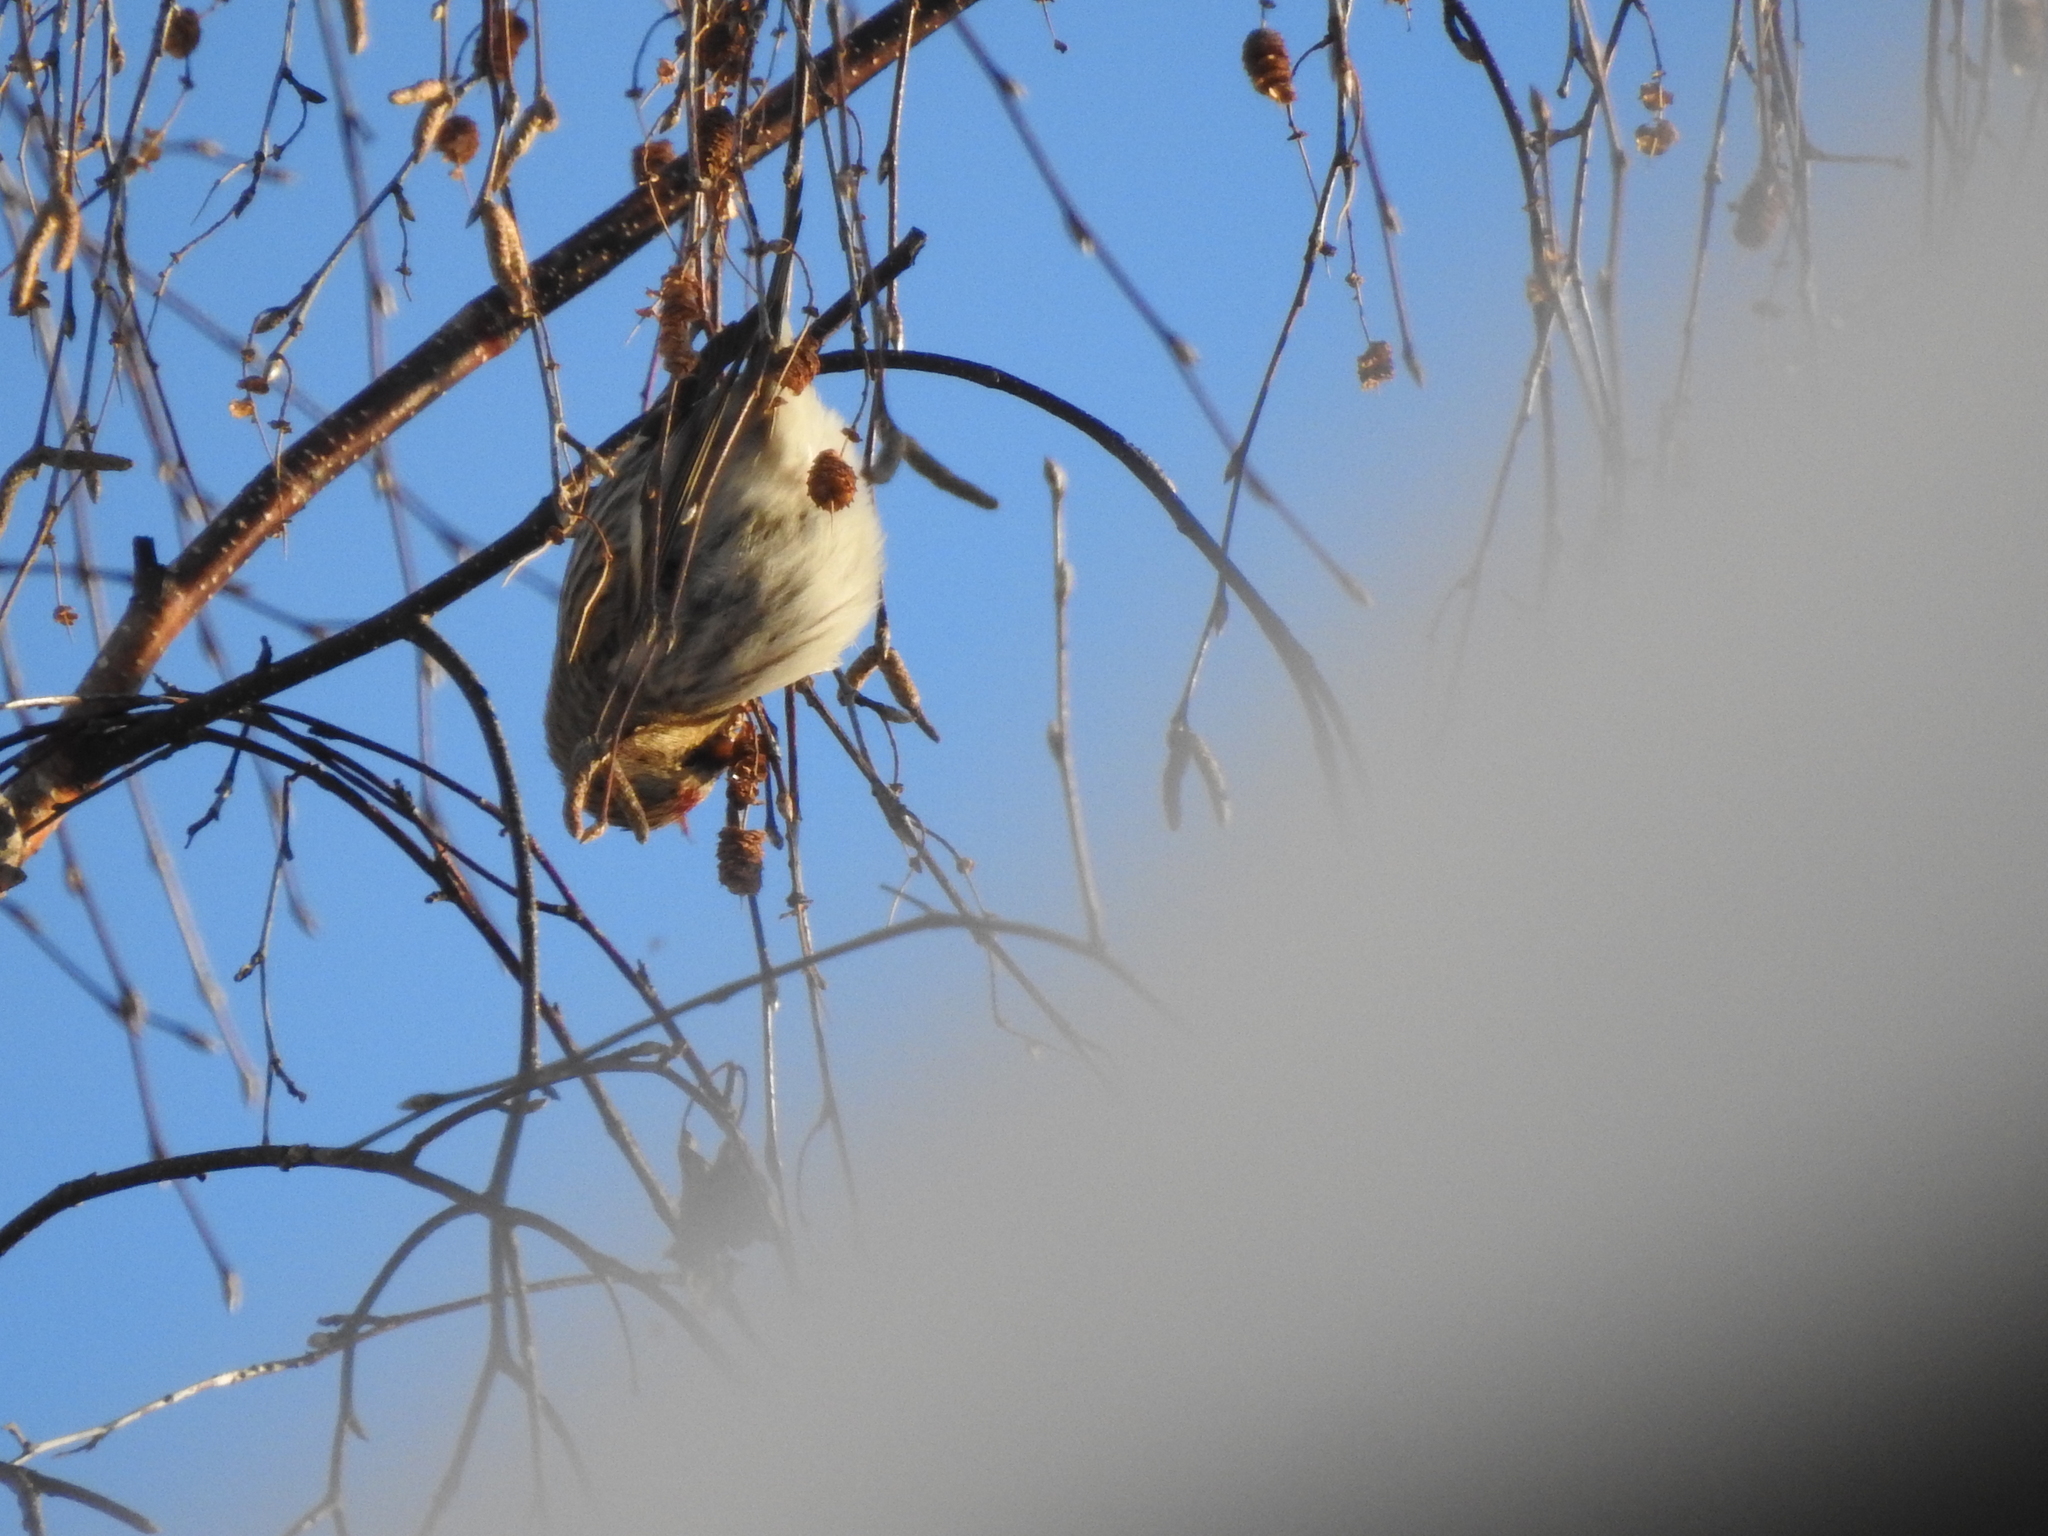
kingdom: Animalia
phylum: Chordata
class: Aves
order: Passeriformes
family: Fringillidae
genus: Acanthis
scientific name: Acanthis flammea
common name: Common redpoll
